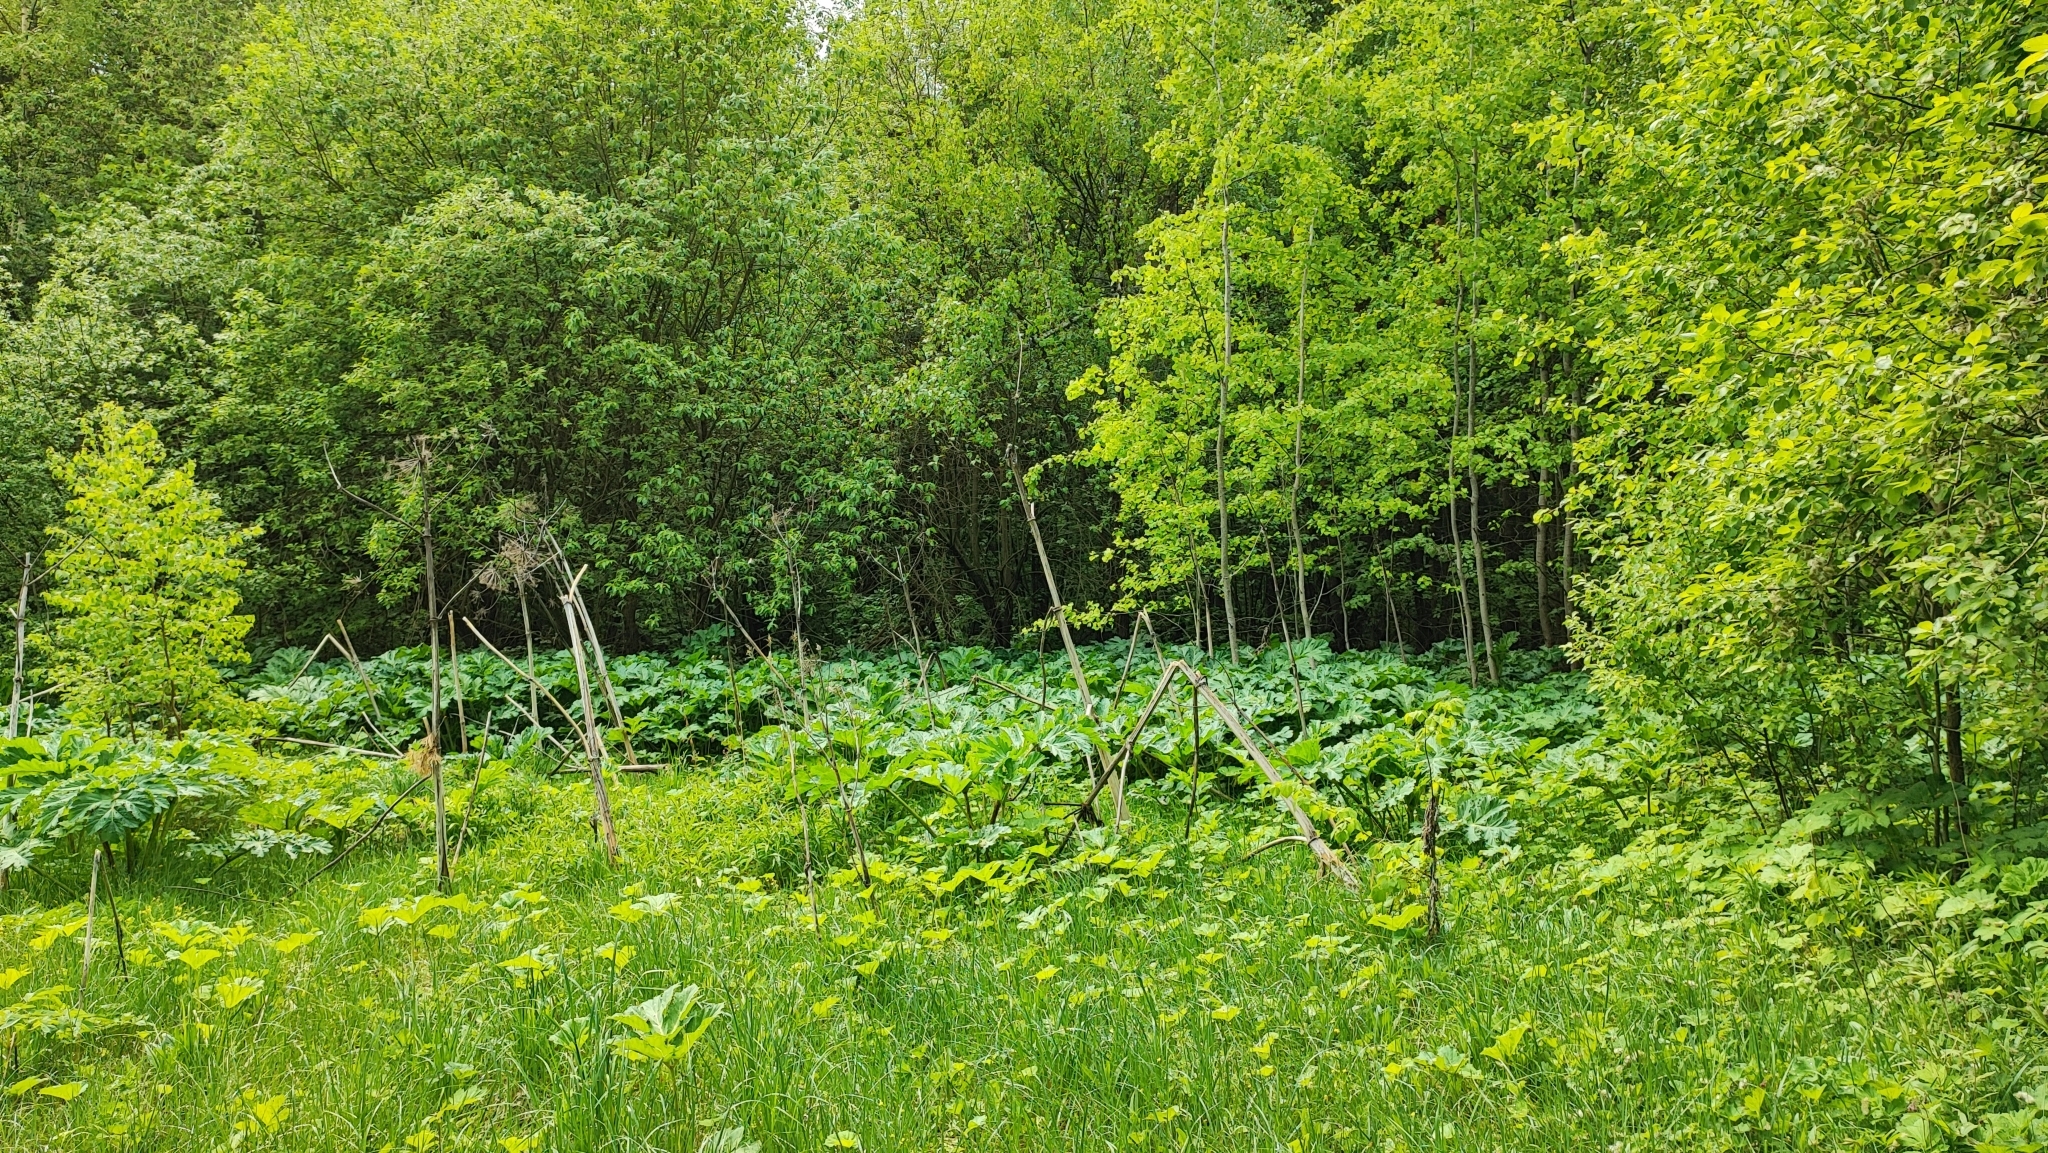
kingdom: Plantae
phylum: Tracheophyta
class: Magnoliopsida
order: Apiales
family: Apiaceae
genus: Heracleum
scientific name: Heracleum sosnowskyi
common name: Sosnowsky's hogweed
